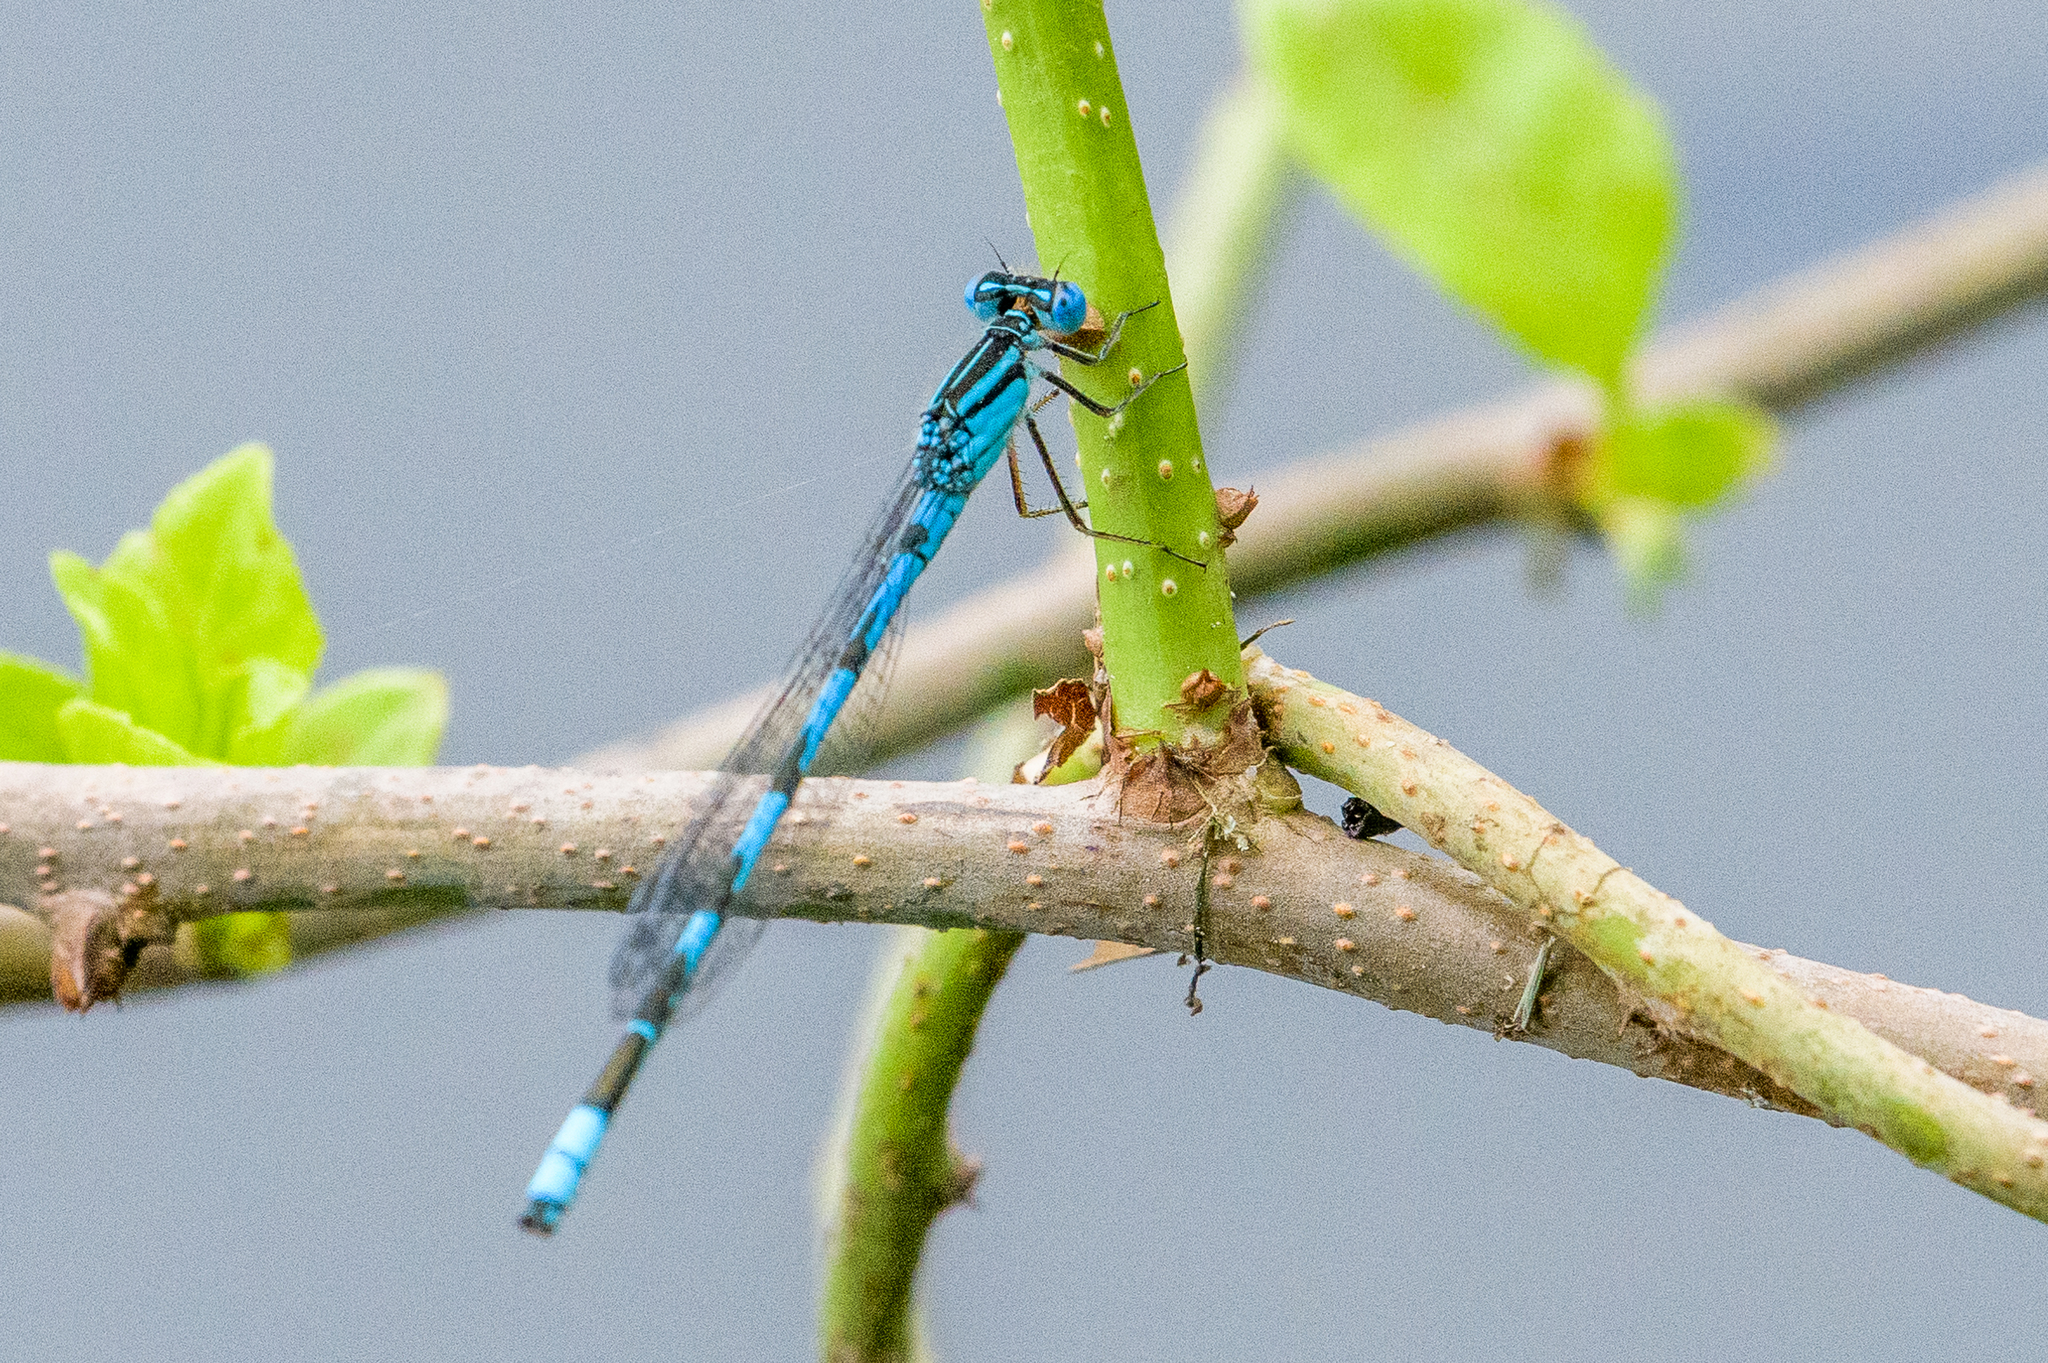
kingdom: Animalia
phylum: Arthropoda
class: Insecta
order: Odonata
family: Coenagrionidae
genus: Enallagma
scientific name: Enallagma durum
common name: Big bluet
